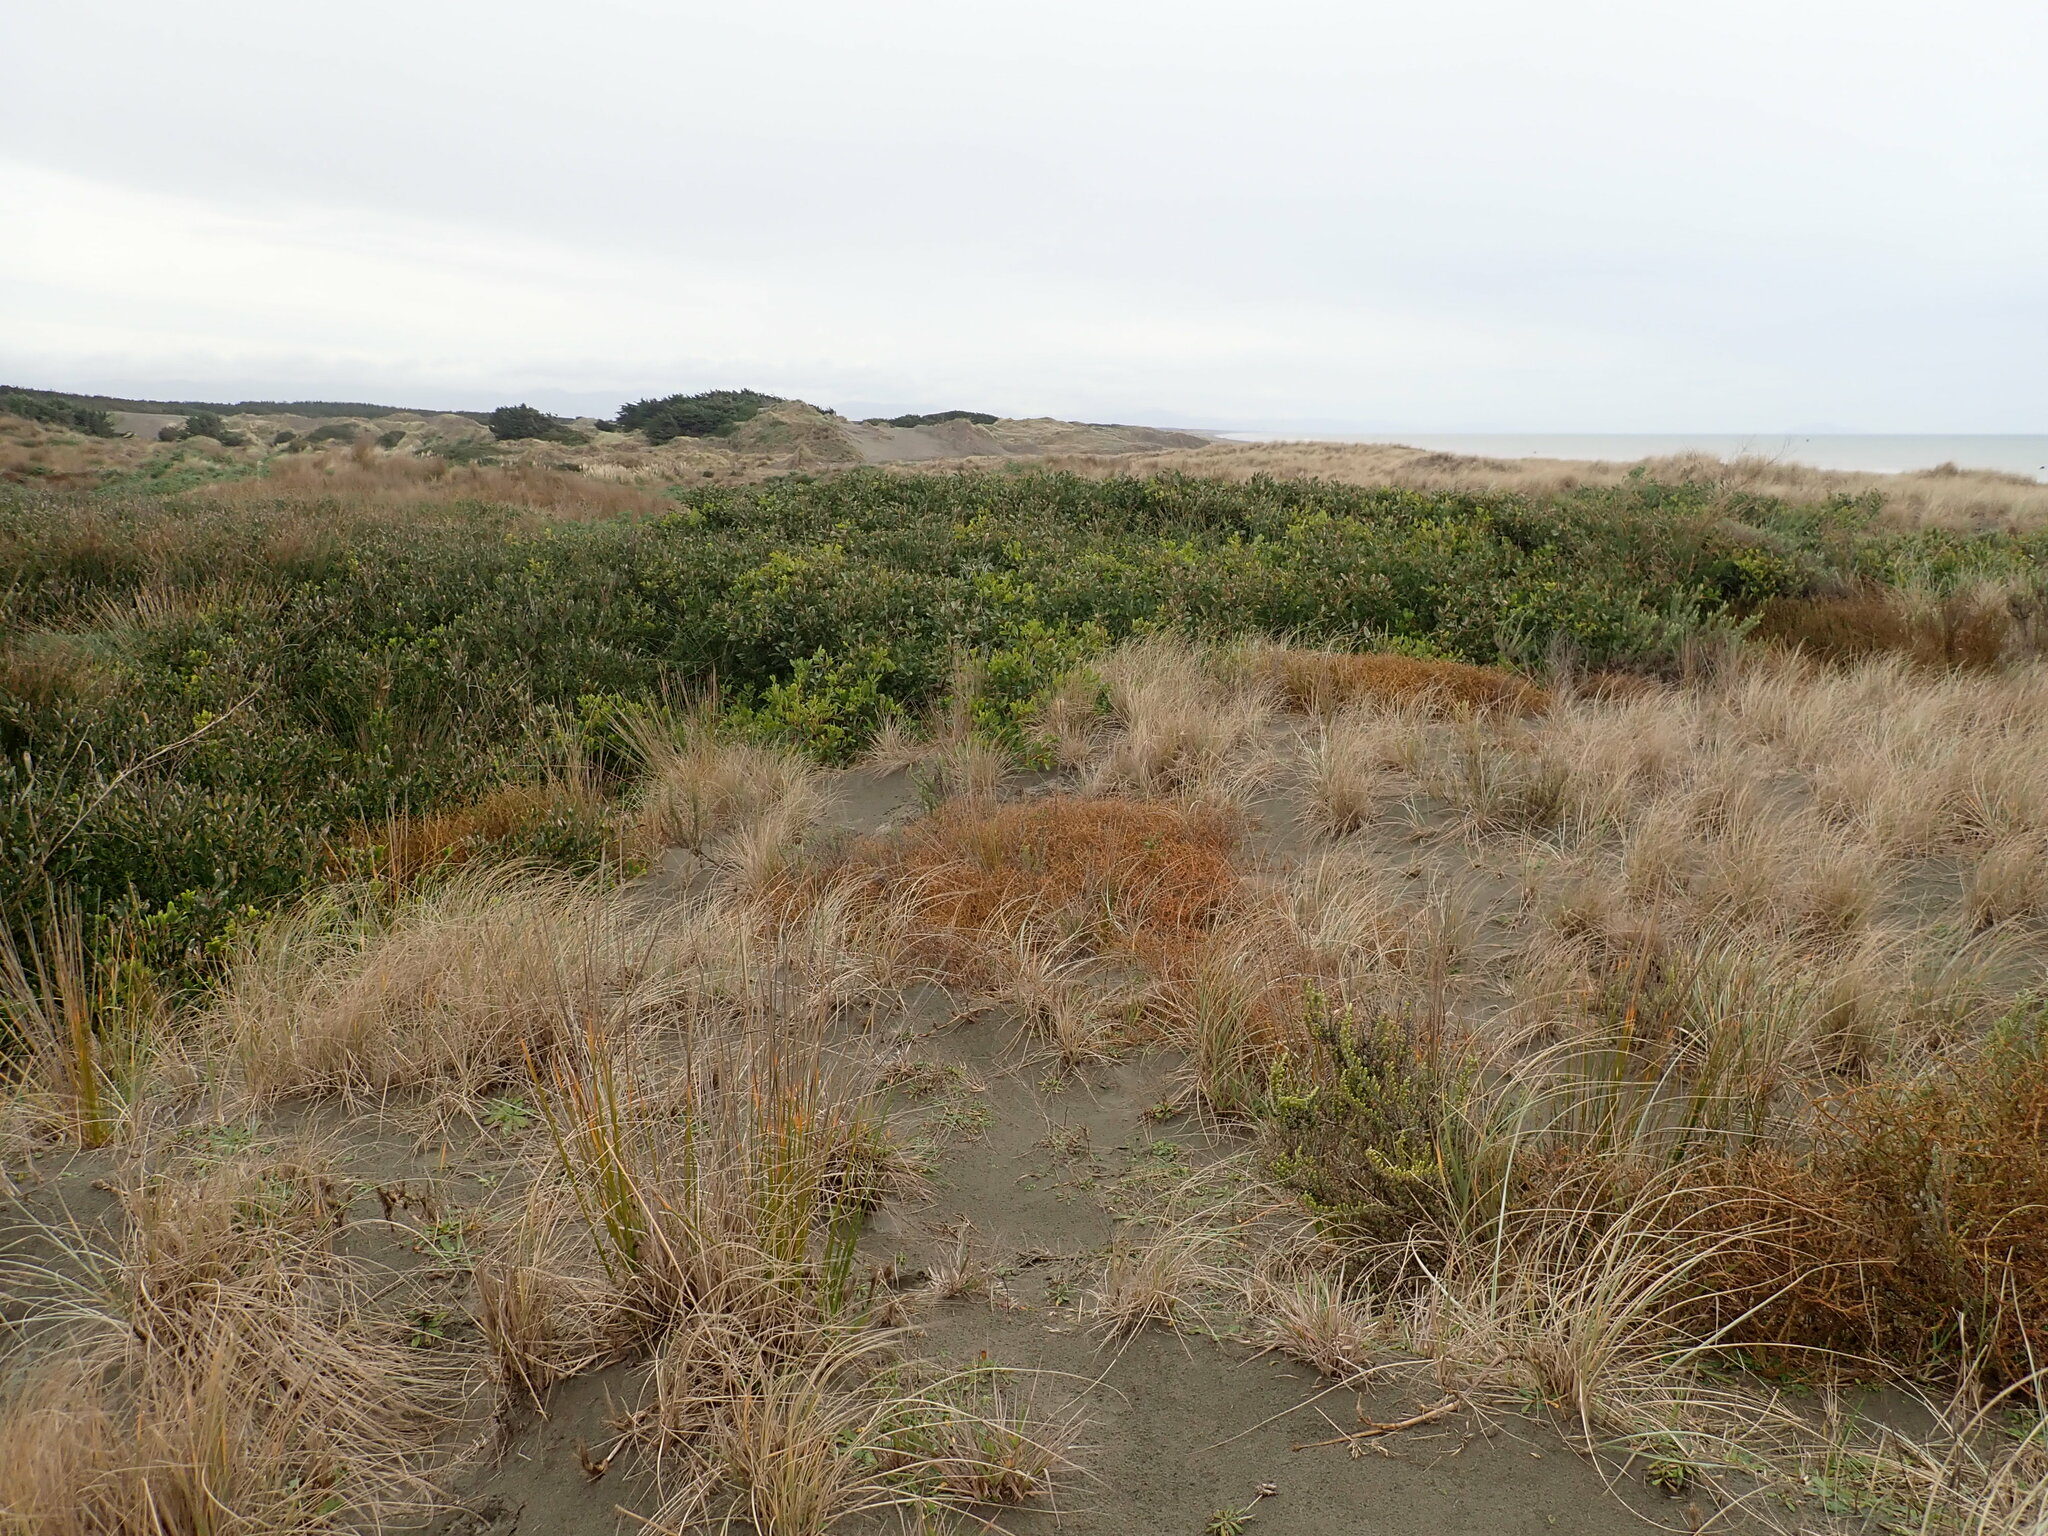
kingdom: Plantae
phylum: Tracheophyta
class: Magnoliopsida
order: Fabales
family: Fabaceae
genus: Acacia
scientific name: Acacia longifolia
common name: Sydney golden wattle
